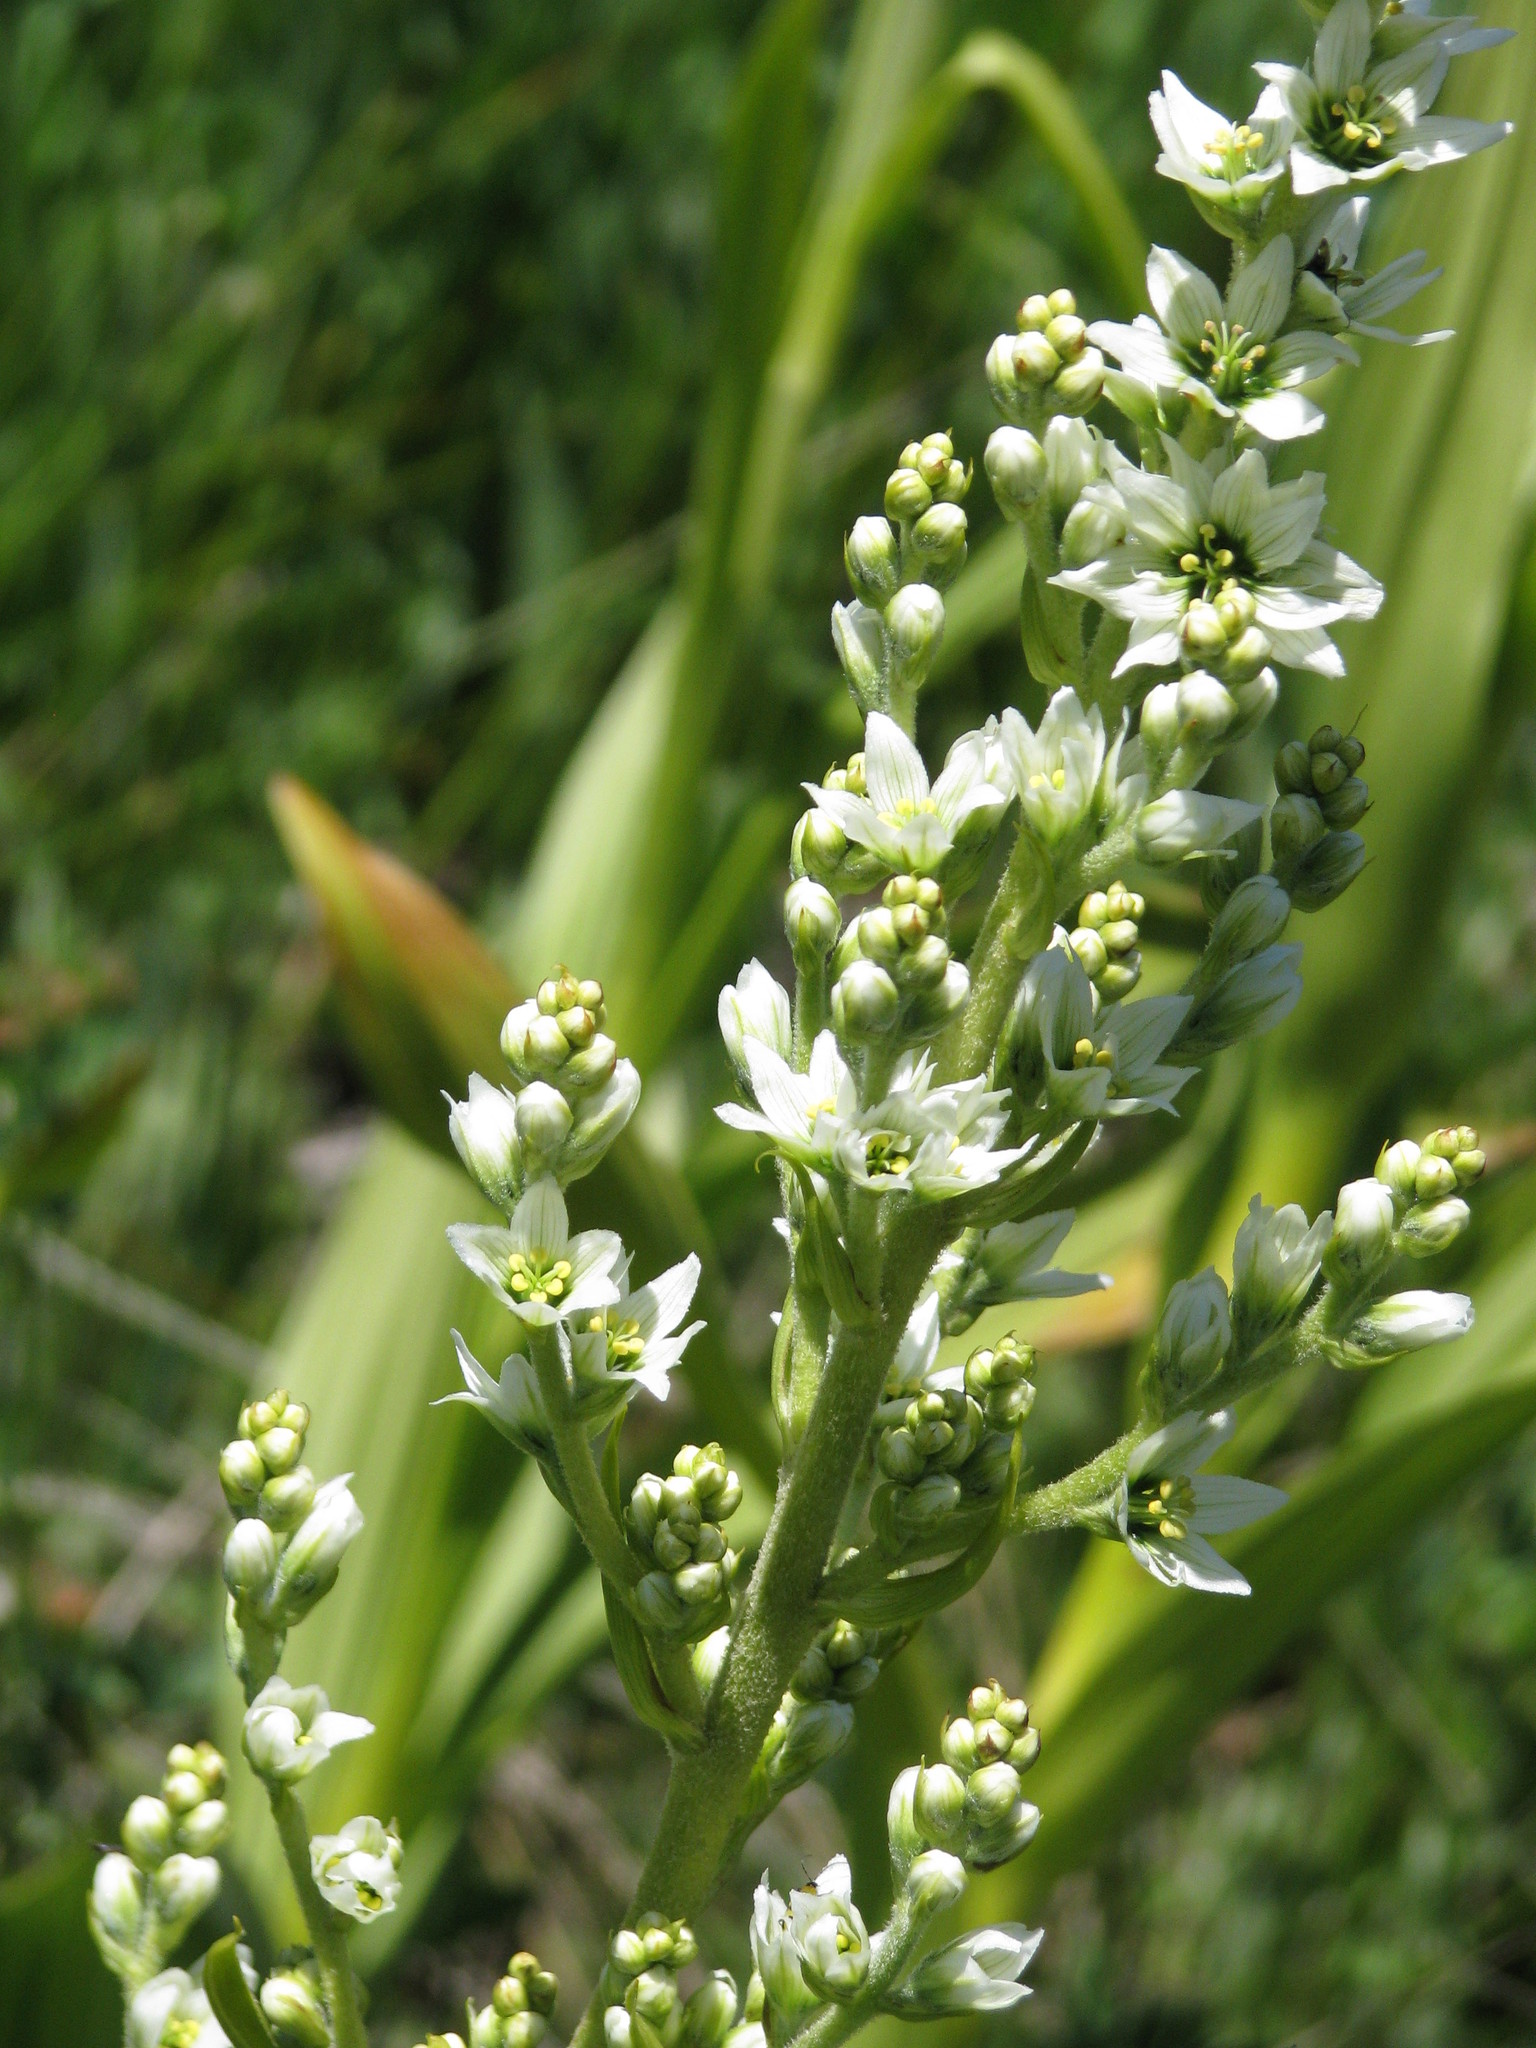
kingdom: Plantae
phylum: Tracheophyta
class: Liliopsida
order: Liliales
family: Melanthiaceae
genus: Veratrum
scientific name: Veratrum californicum
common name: California veratrum
